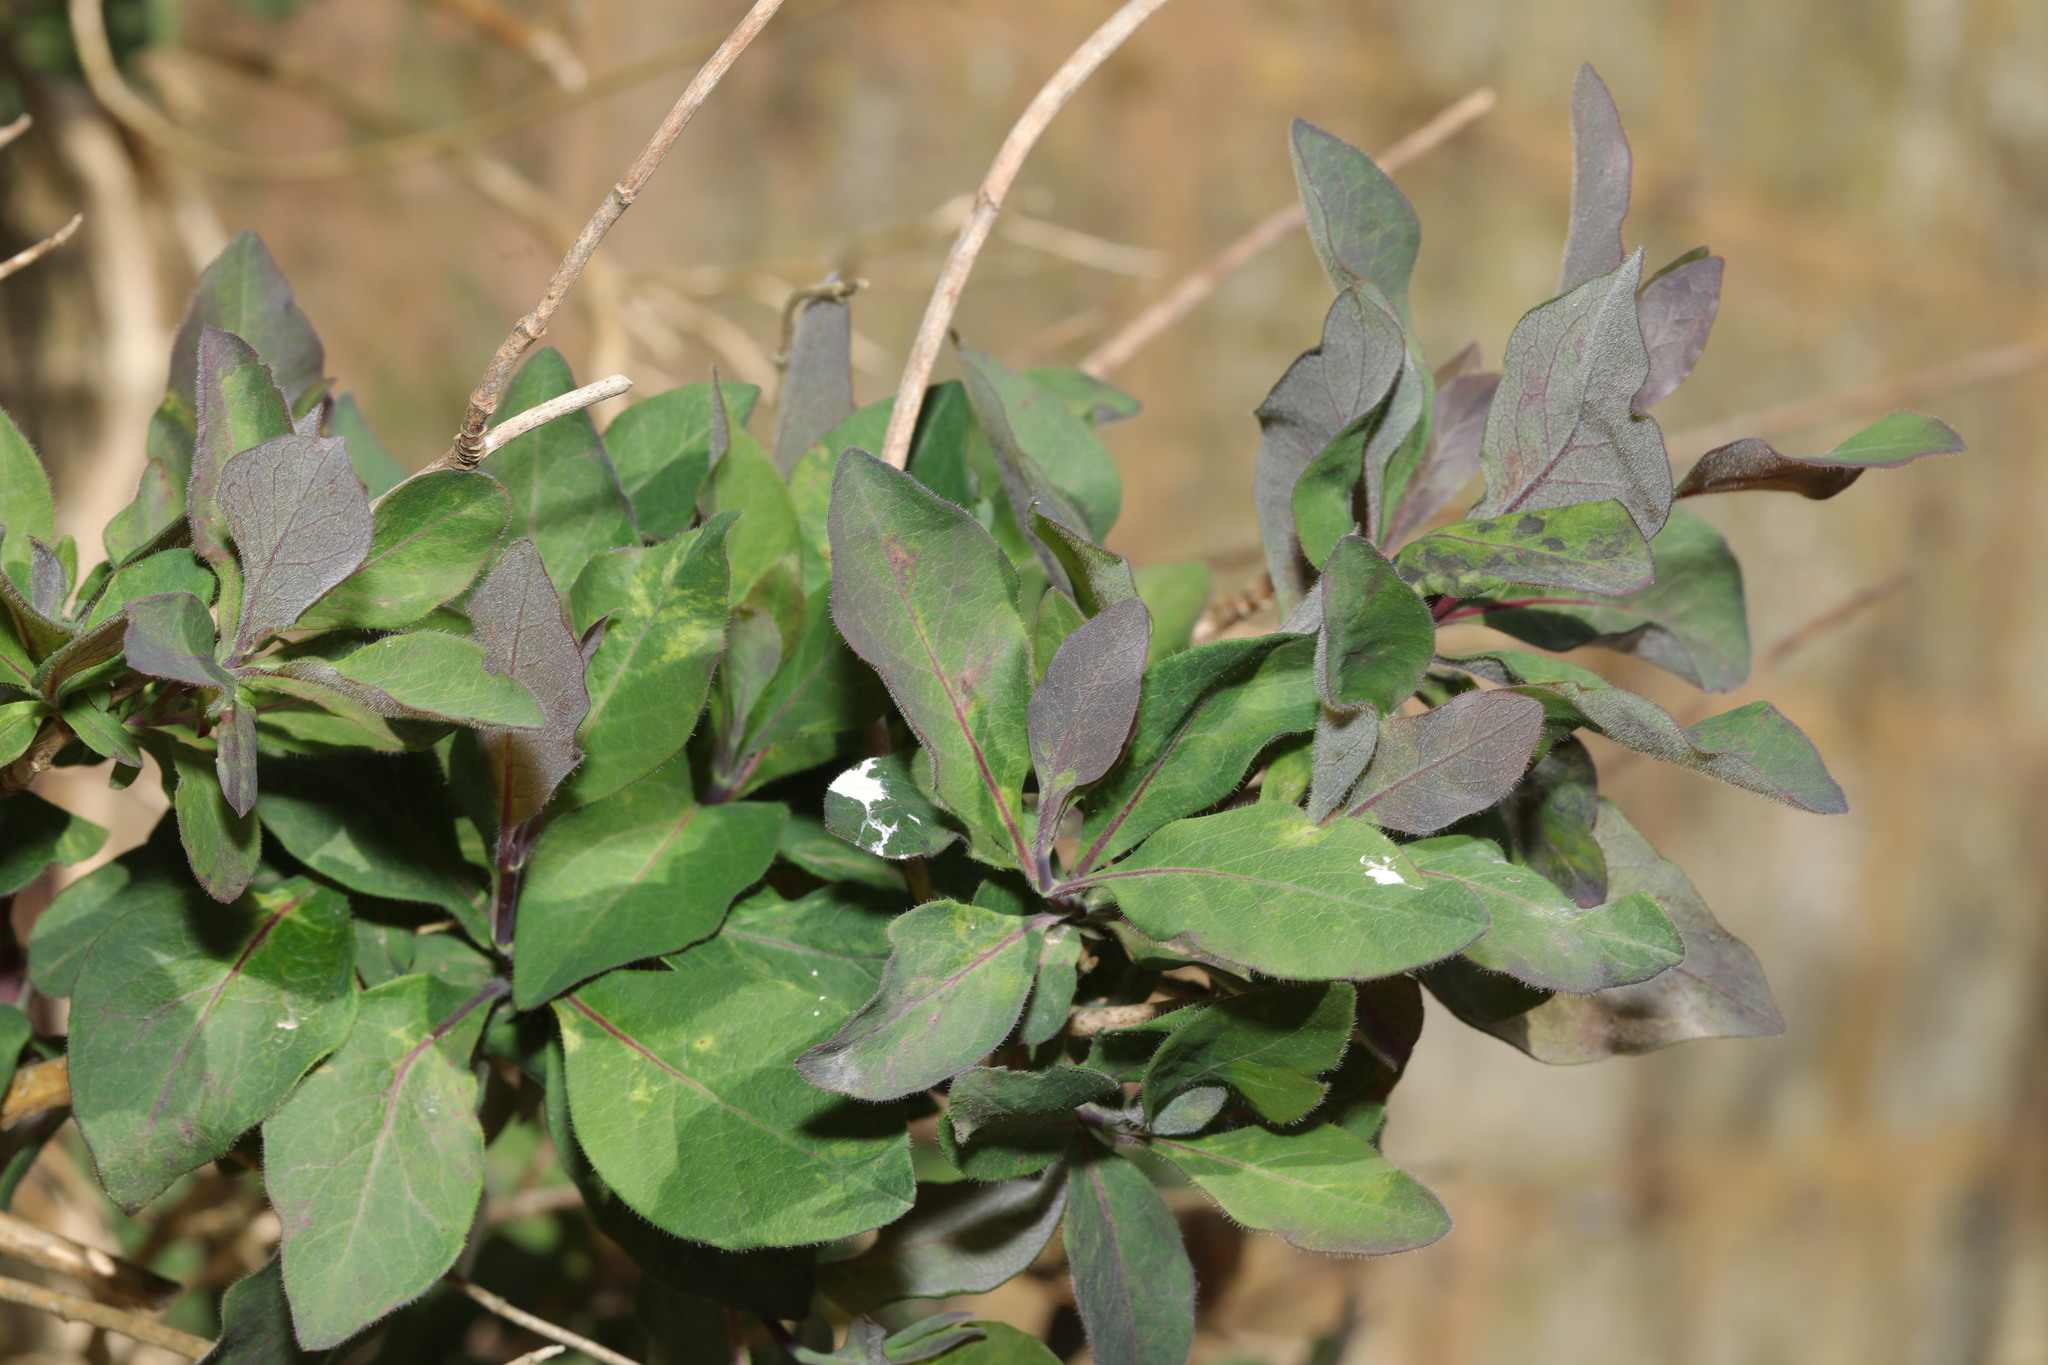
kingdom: Plantae
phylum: Tracheophyta
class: Magnoliopsida
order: Dipsacales
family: Caprifoliaceae
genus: Lonicera
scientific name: Lonicera periclymenum
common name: European honeysuckle
